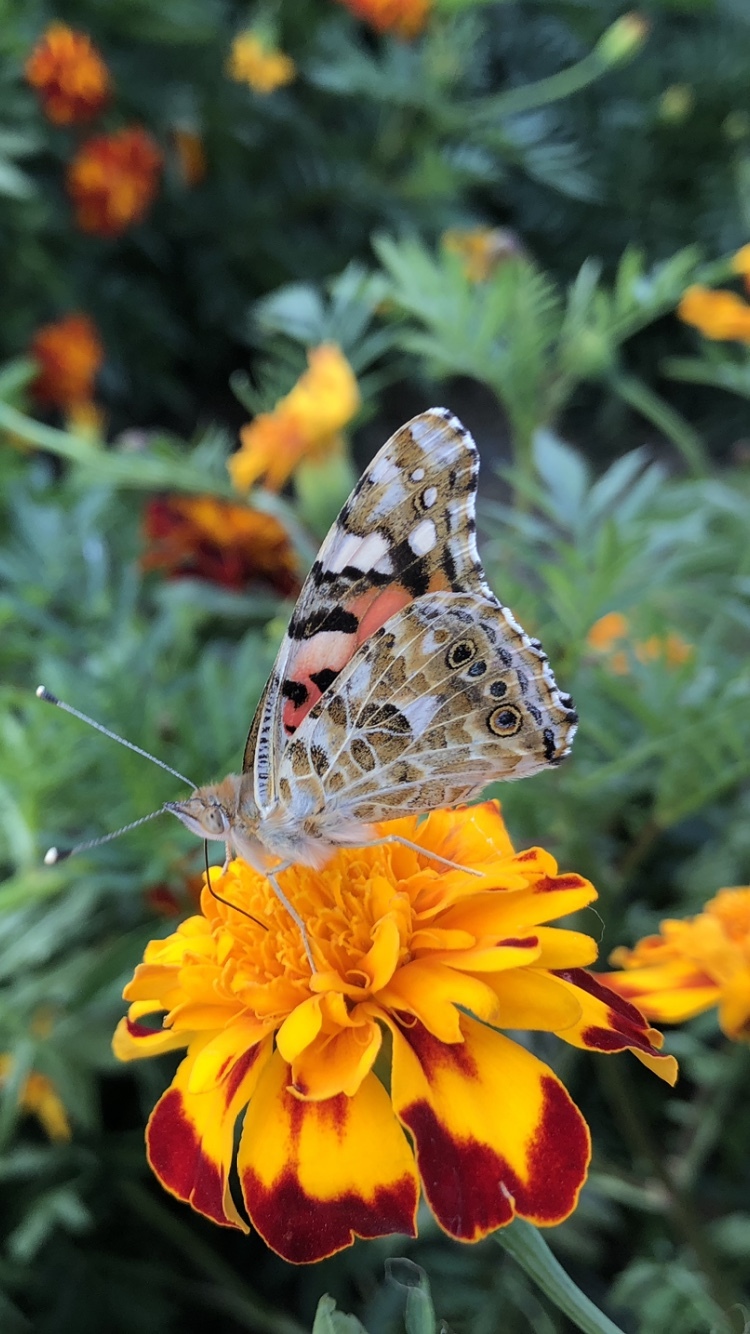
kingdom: Animalia
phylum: Arthropoda
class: Insecta
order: Lepidoptera
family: Nymphalidae
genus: Vanessa
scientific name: Vanessa cardui
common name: Painted lady
